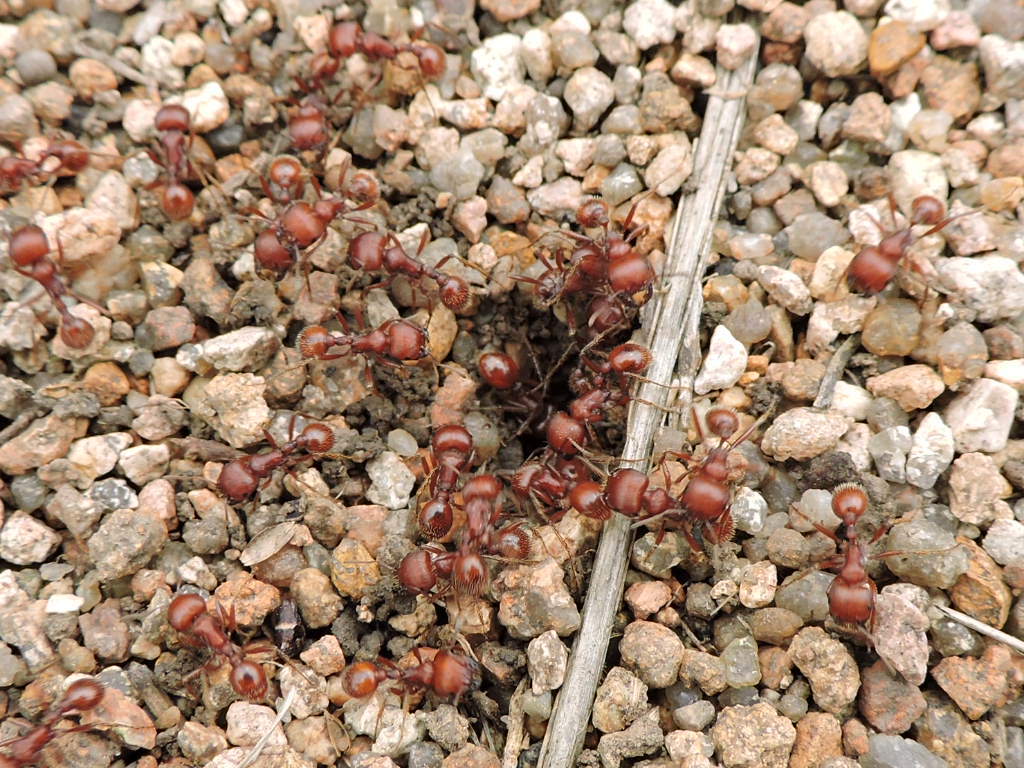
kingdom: Animalia
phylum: Arthropoda
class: Insecta
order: Hymenoptera
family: Formicidae
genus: Pogonomyrmex
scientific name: Pogonomyrmex barbatus
